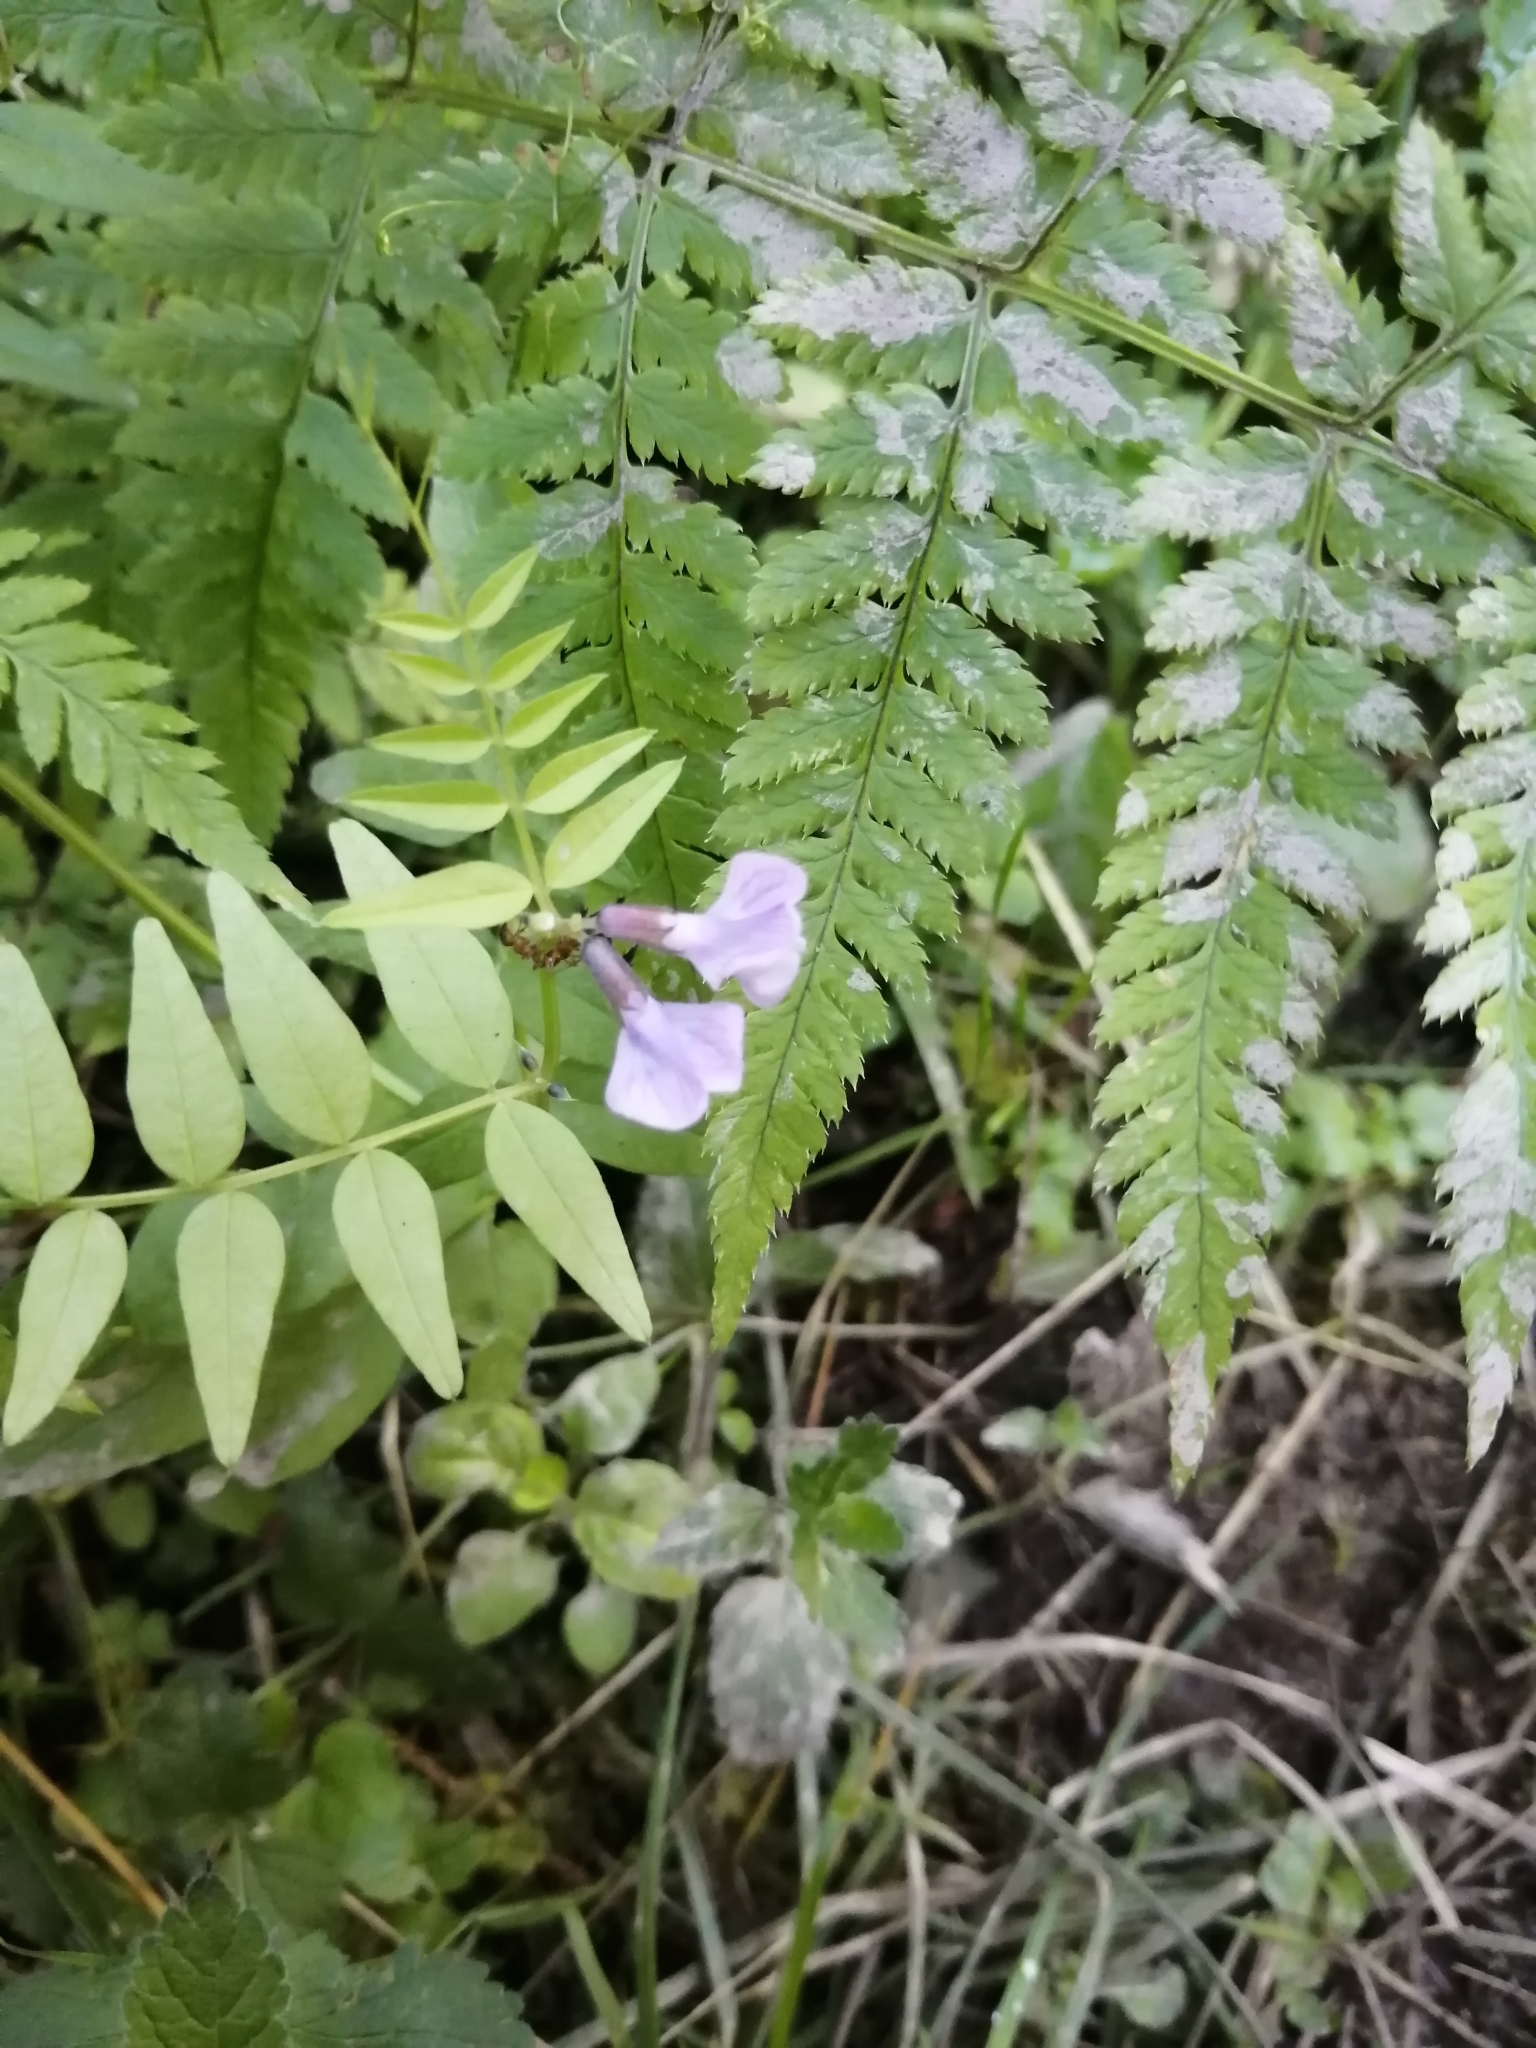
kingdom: Plantae
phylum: Tracheophyta
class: Magnoliopsida
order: Fabales
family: Fabaceae
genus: Vicia
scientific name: Vicia sepium
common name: Bush vetch
